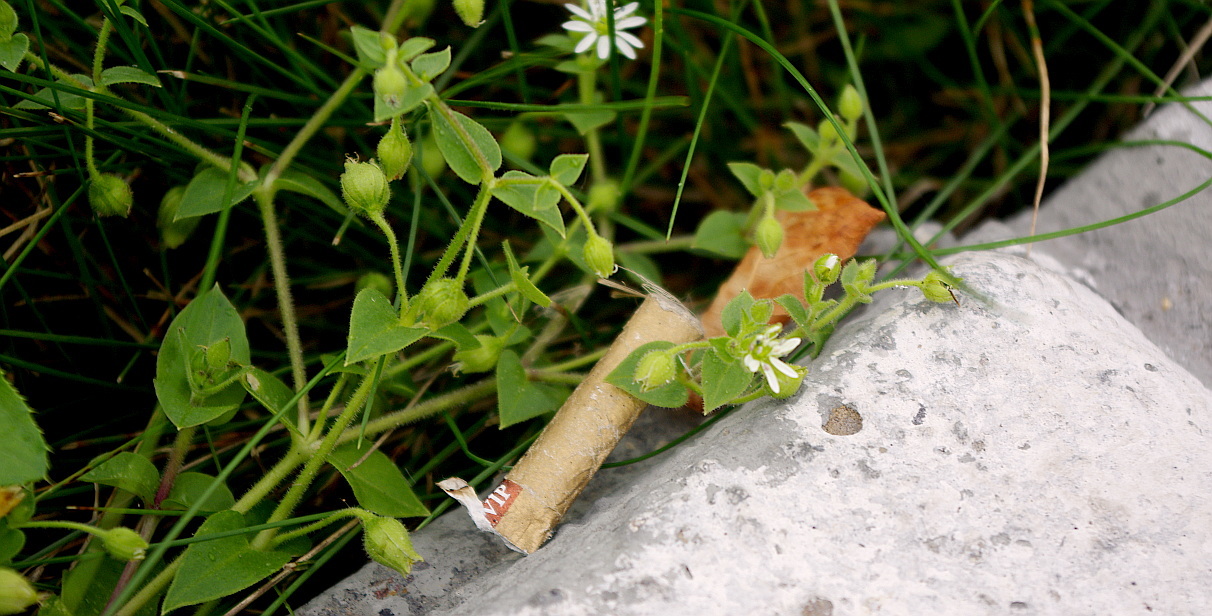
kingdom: Plantae
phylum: Tracheophyta
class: Magnoliopsida
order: Caryophyllales
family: Caryophyllaceae
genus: Stellaria
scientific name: Stellaria aquatica
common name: Water chickweed
